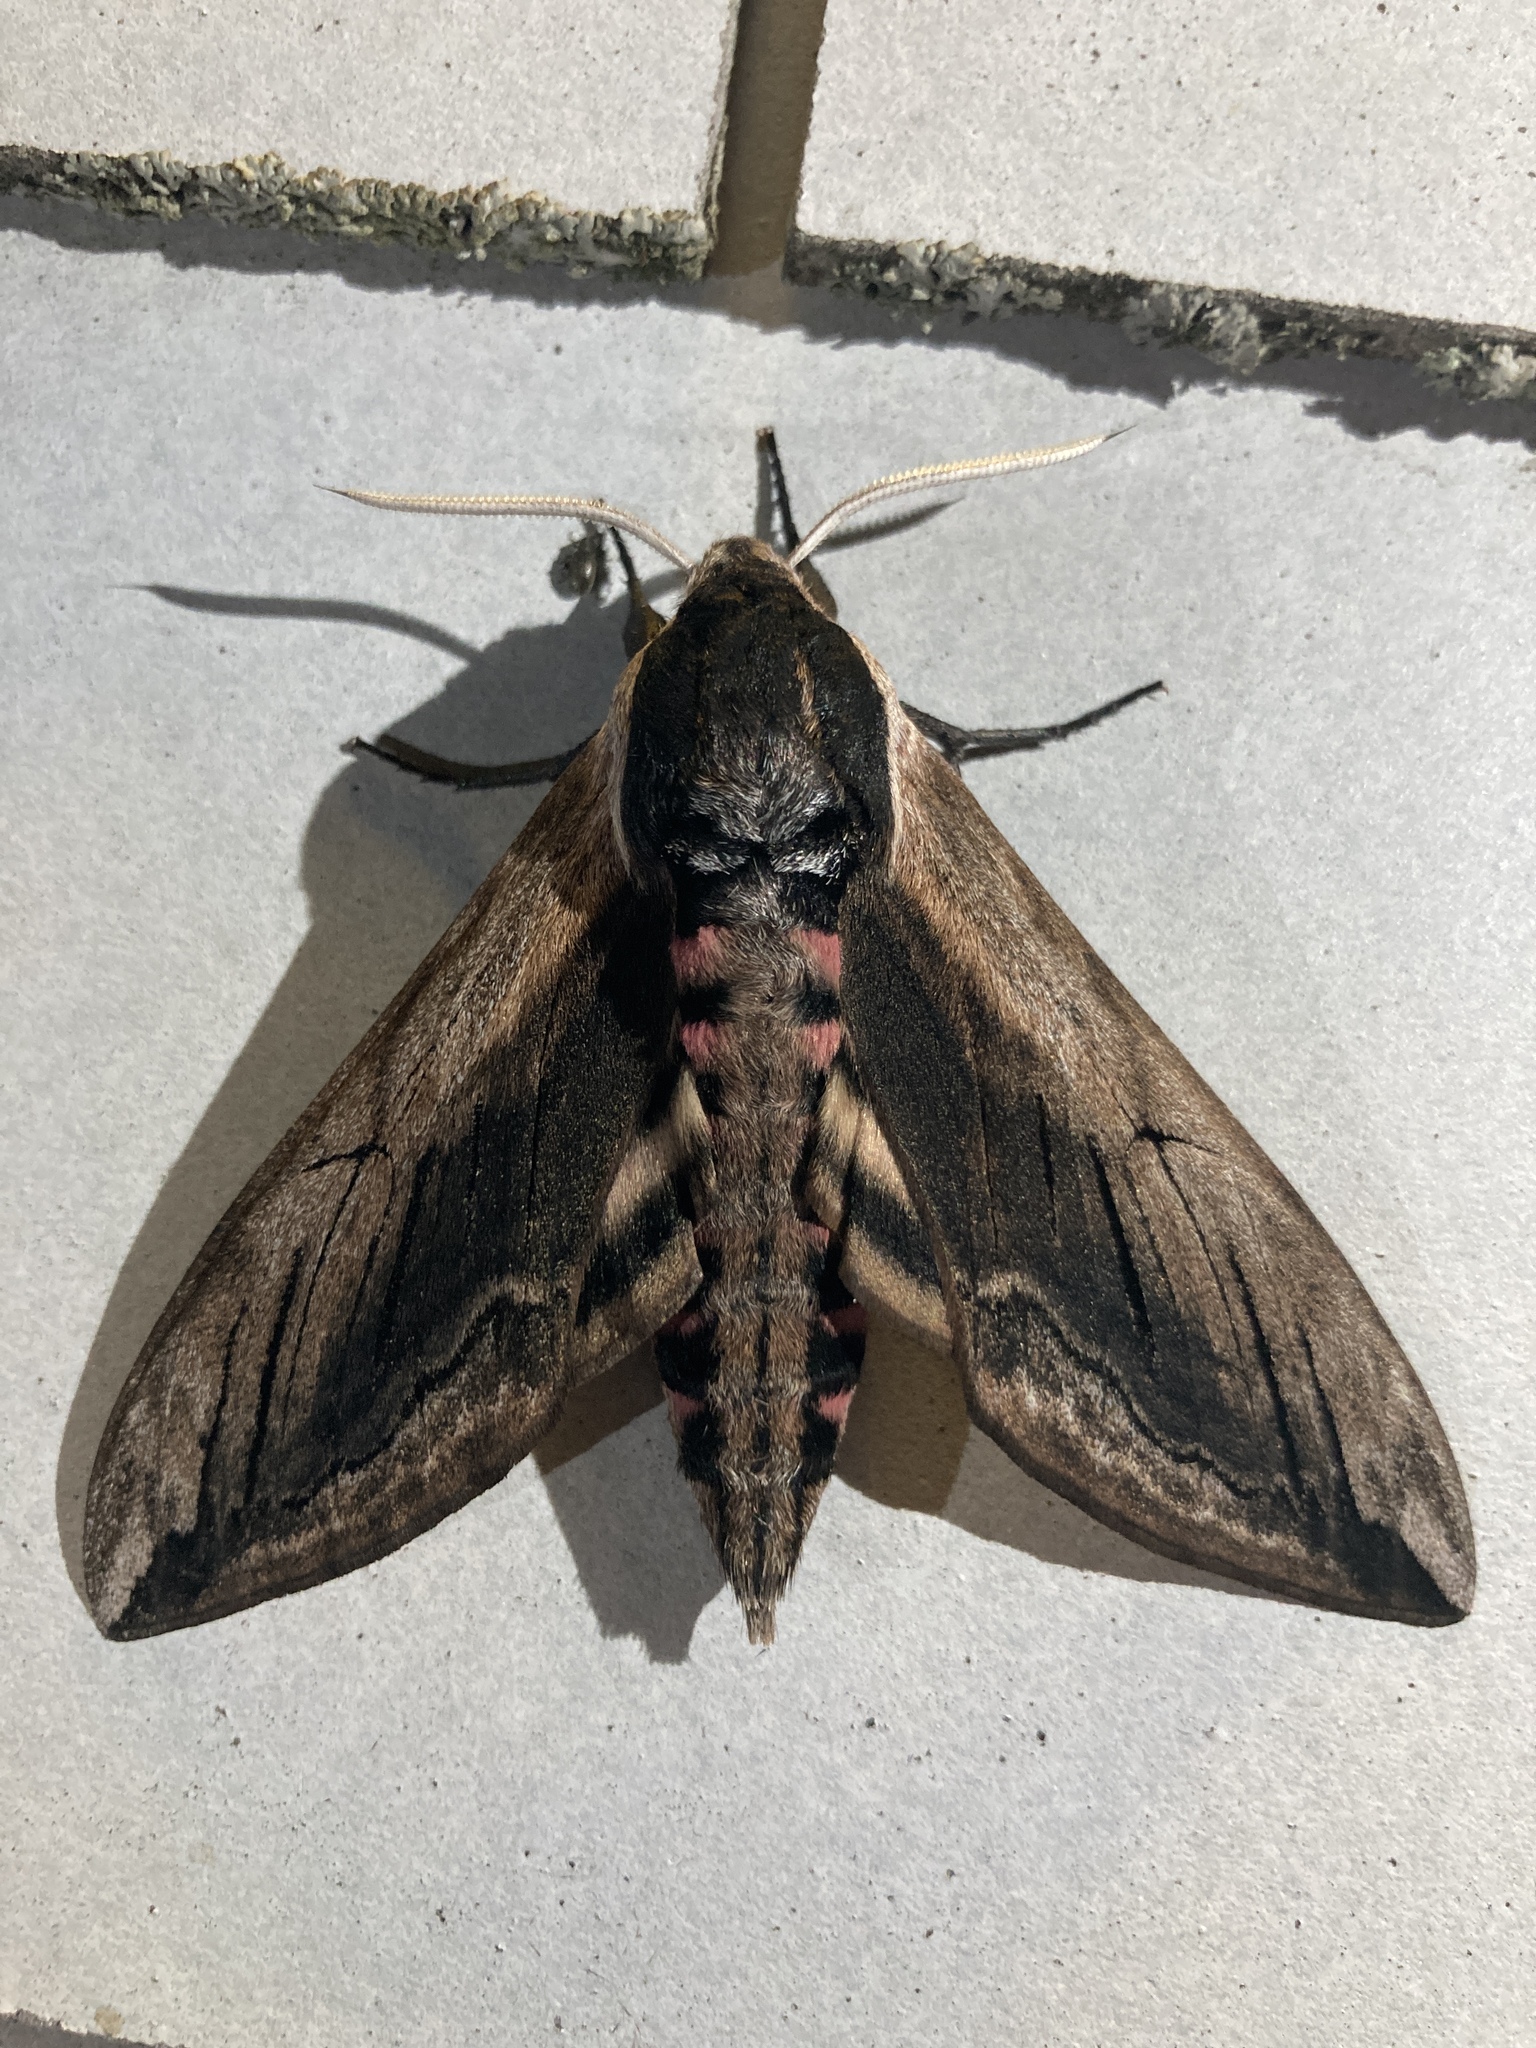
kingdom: Animalia
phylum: Arthropoda
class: Insecta
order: Lepidoptera
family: Sphingidae
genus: Sphinx
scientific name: Sphinx ligustri
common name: Privet hawk-moth
